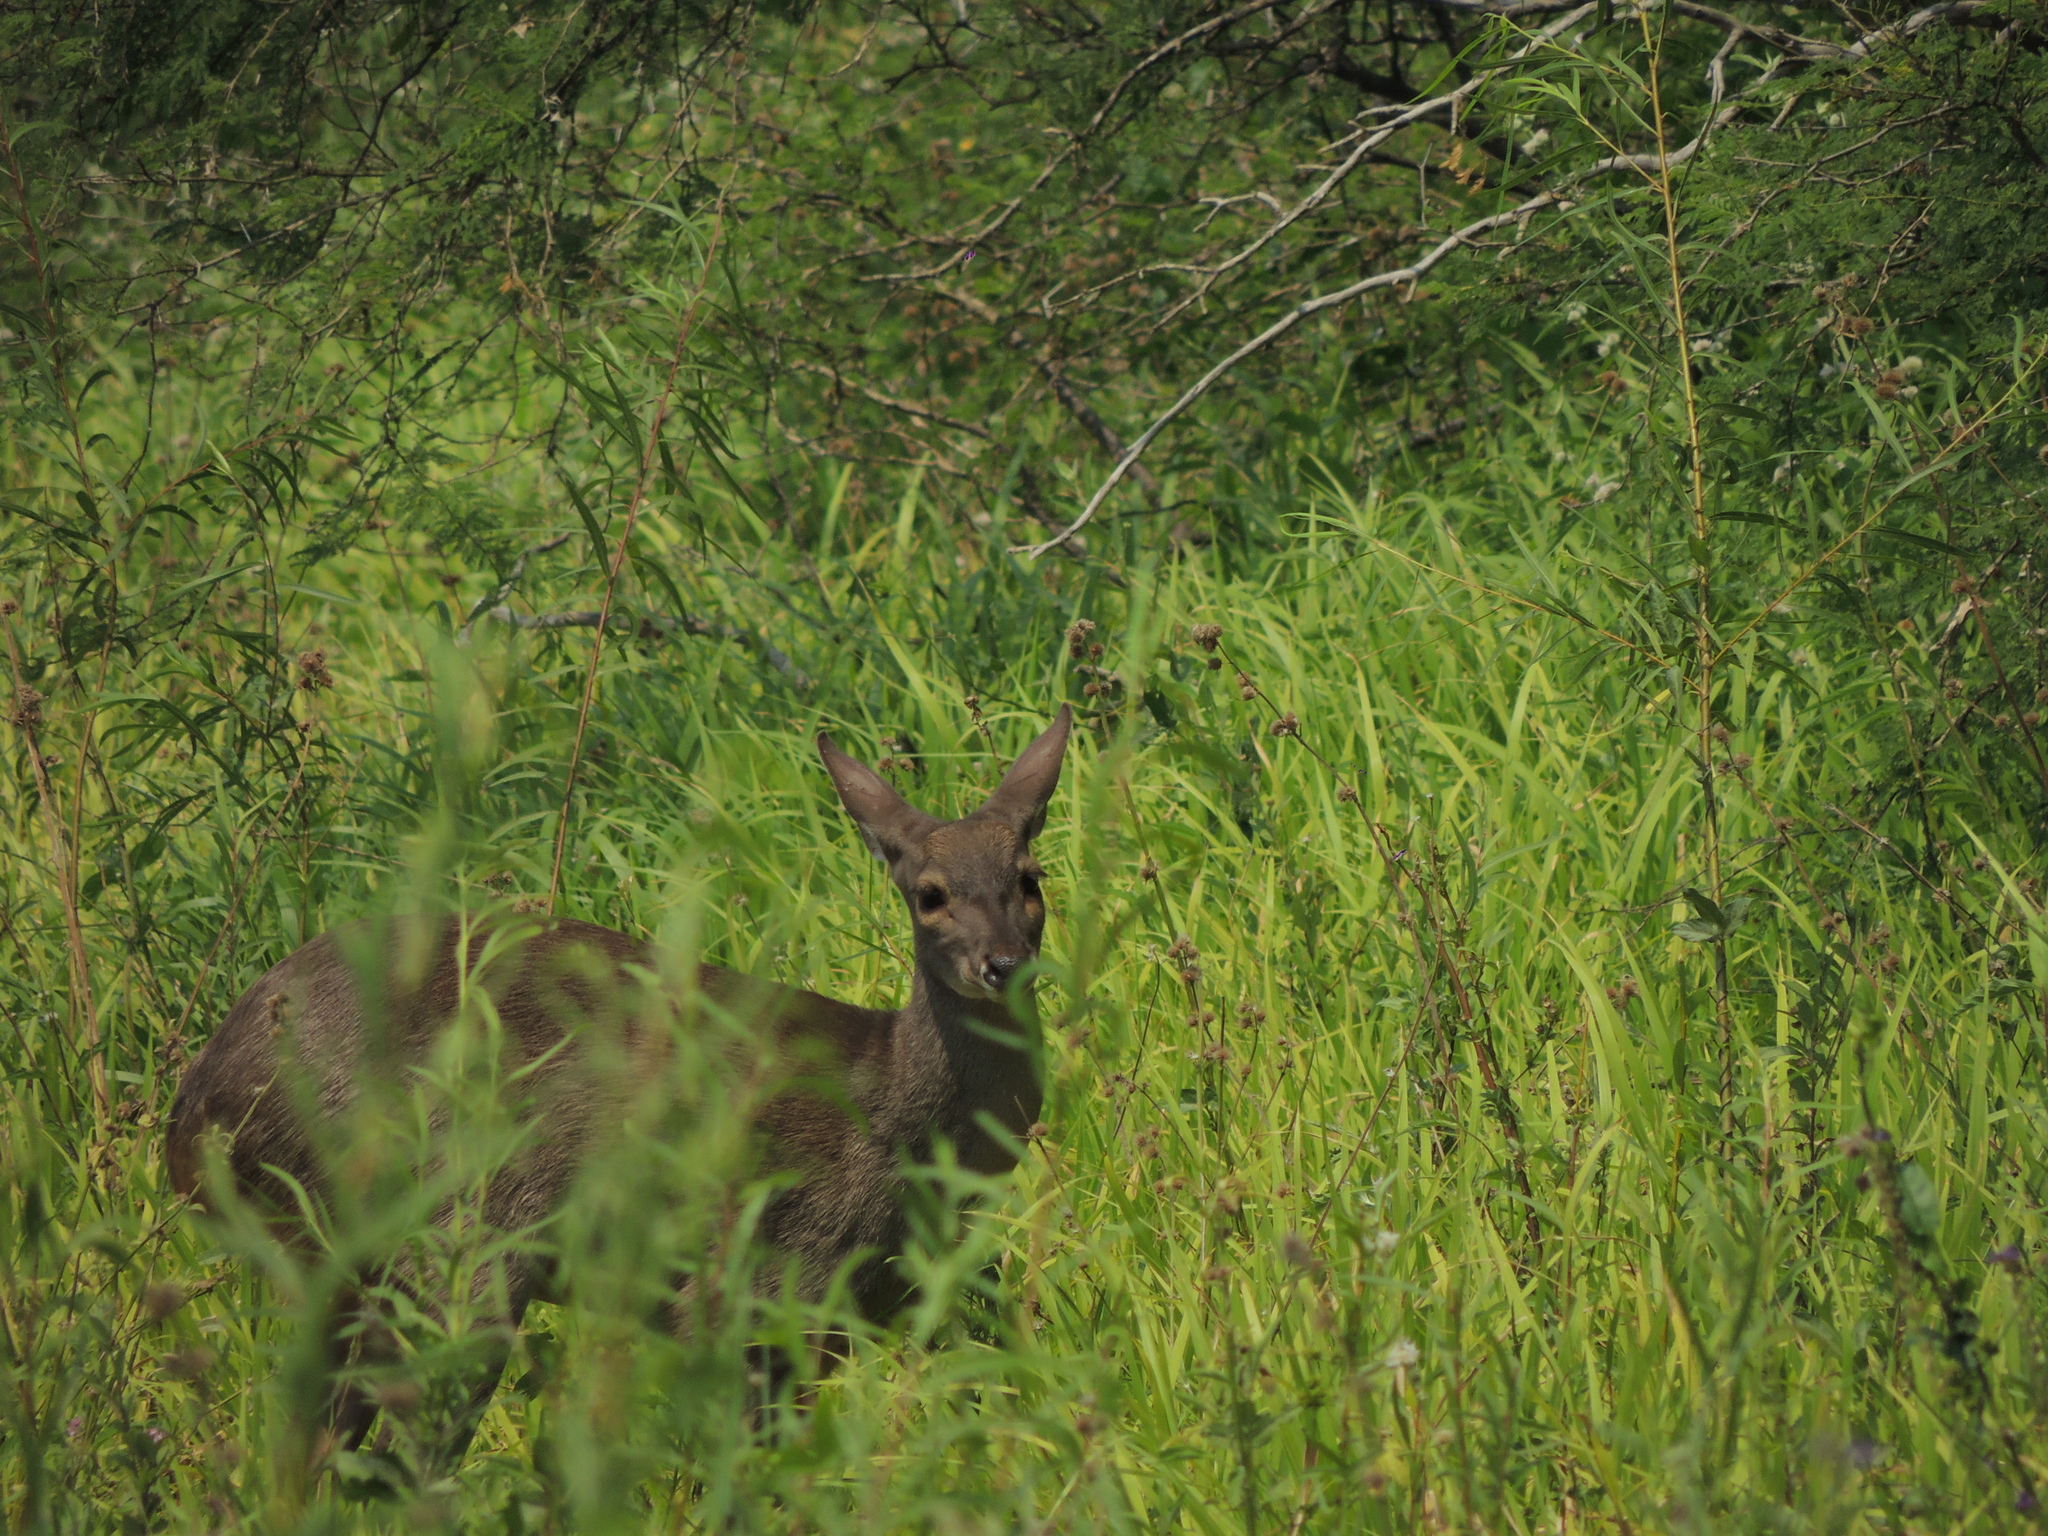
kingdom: Animalia
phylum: Chordata
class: Mammalia
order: Artiodactyla
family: Cervidae
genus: Mazama
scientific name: Mazama gouazoubira
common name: Gray brocket
